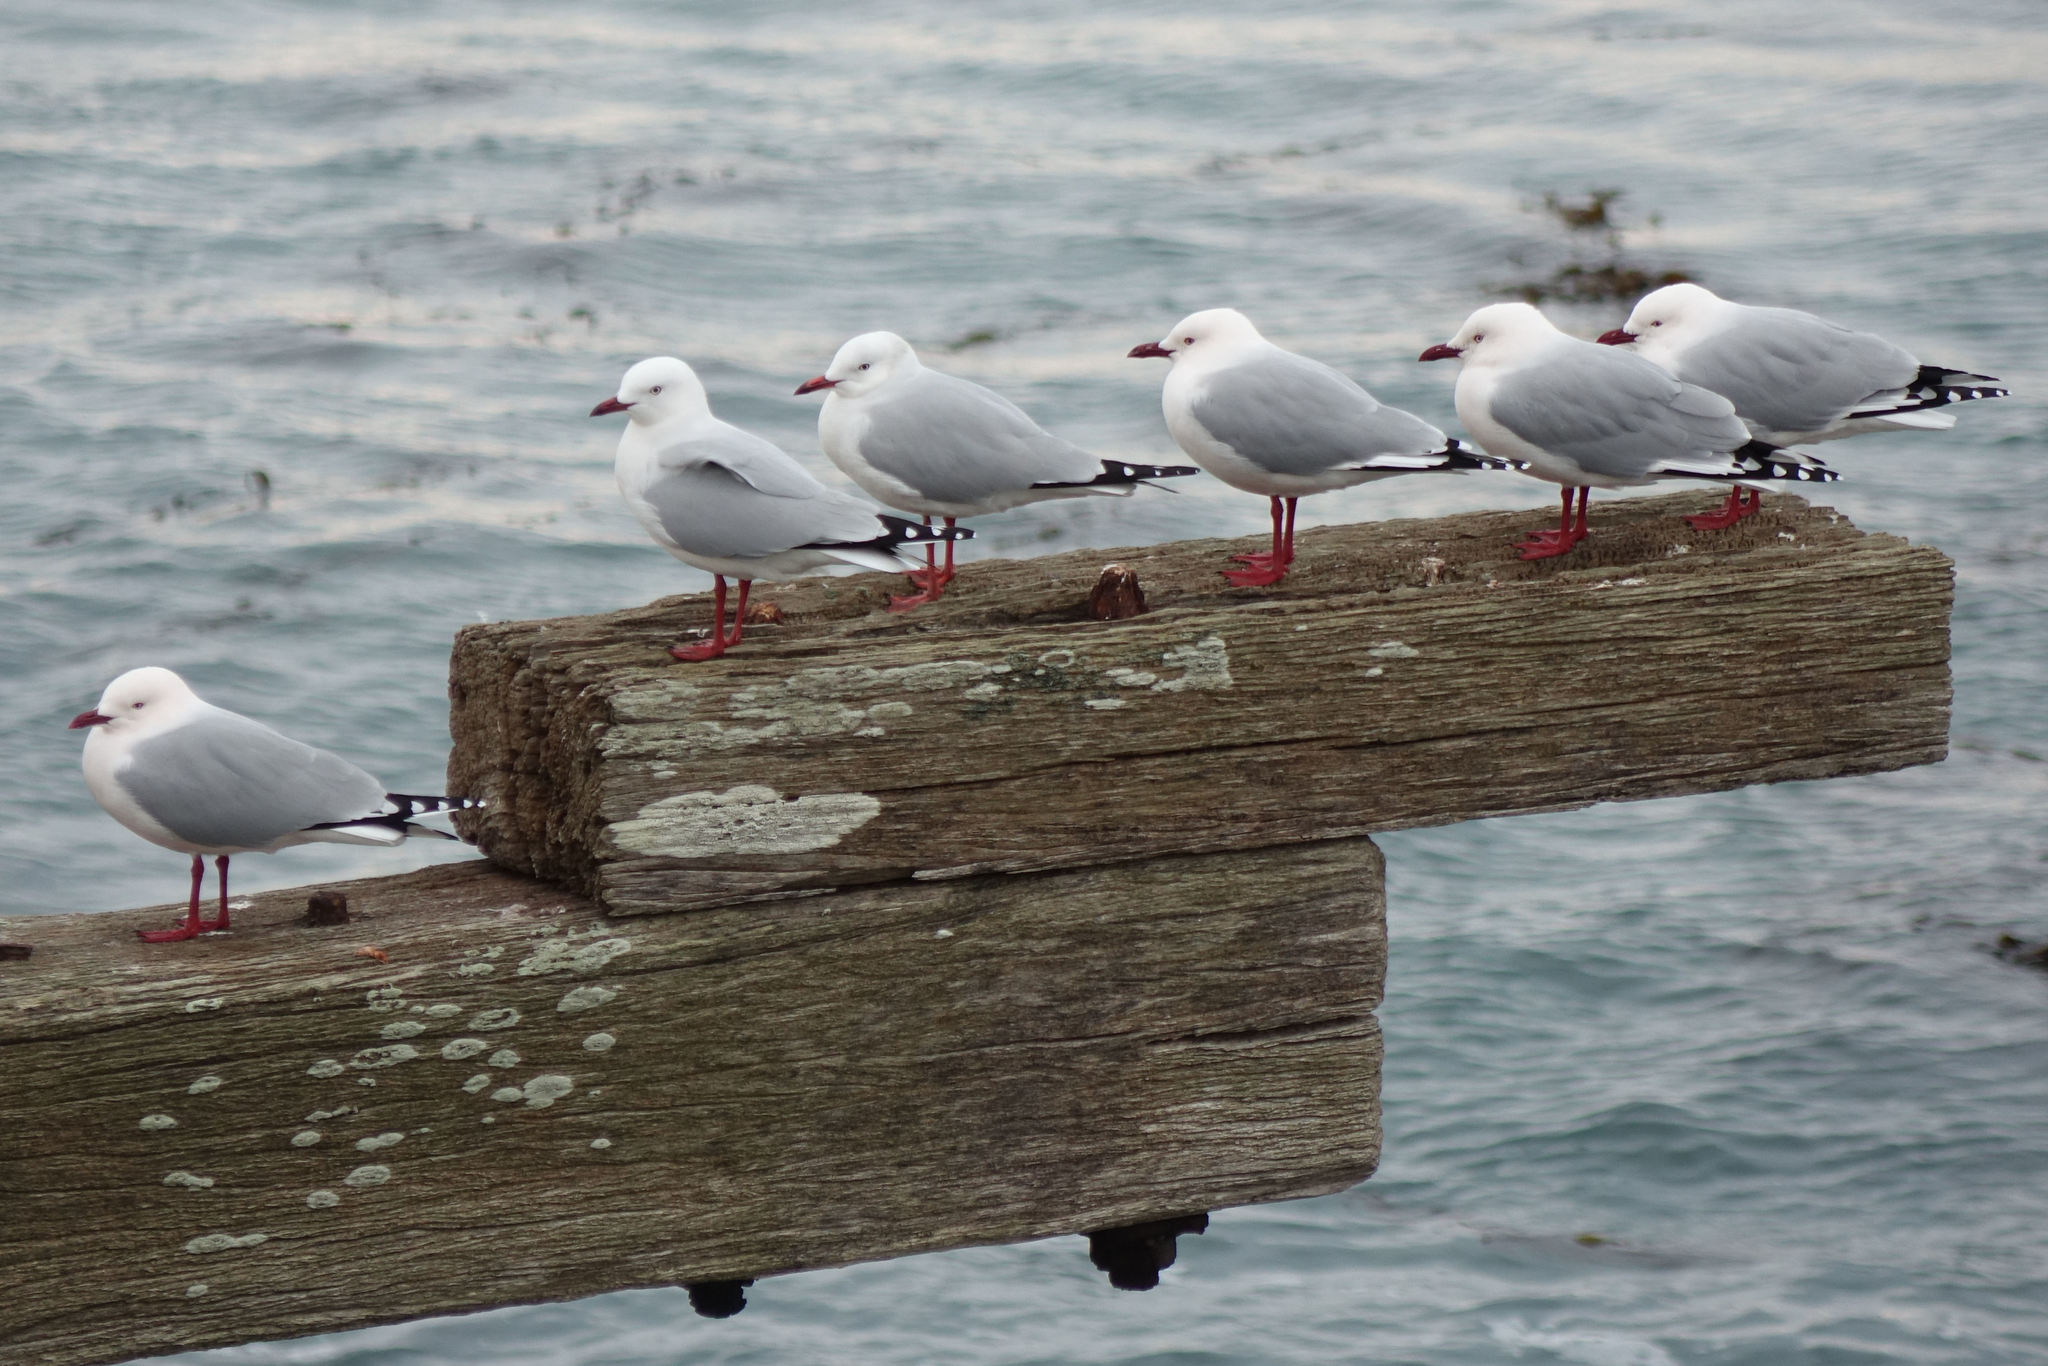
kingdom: Animalia
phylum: Chordata
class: Aves
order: Charadriiformes
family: Laridae
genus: Chroicocephalus
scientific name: Chroicocephalus novaehollandiae
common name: Silver gull
